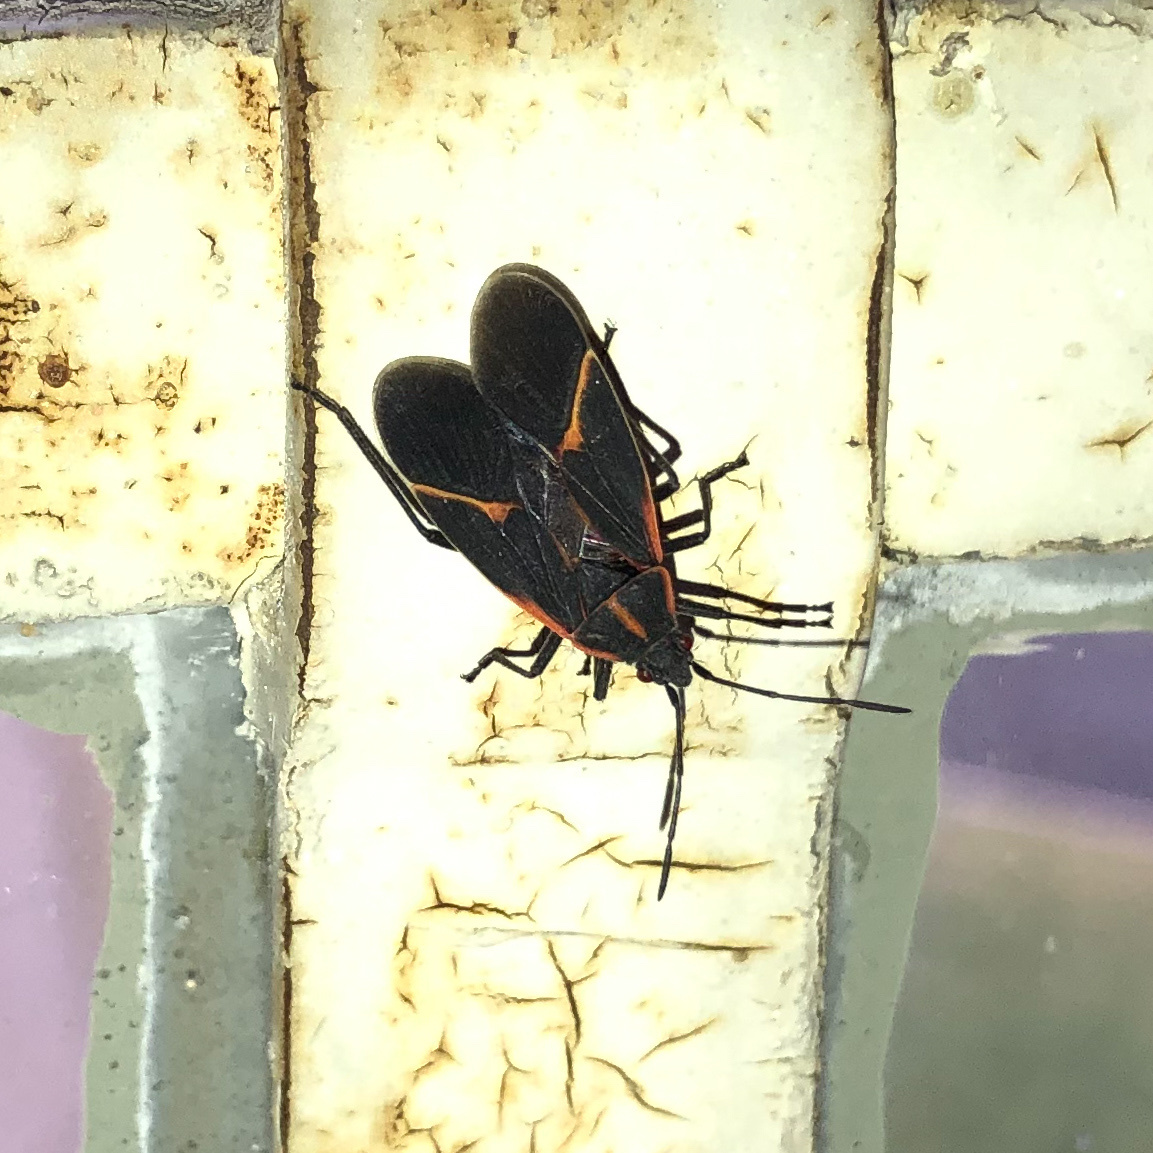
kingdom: Animalia
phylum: Arthropoda
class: Insecta
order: Hemiptera
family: Rhopalidae
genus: Boisea
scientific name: Boisea trivittata
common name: Boxelder bug
